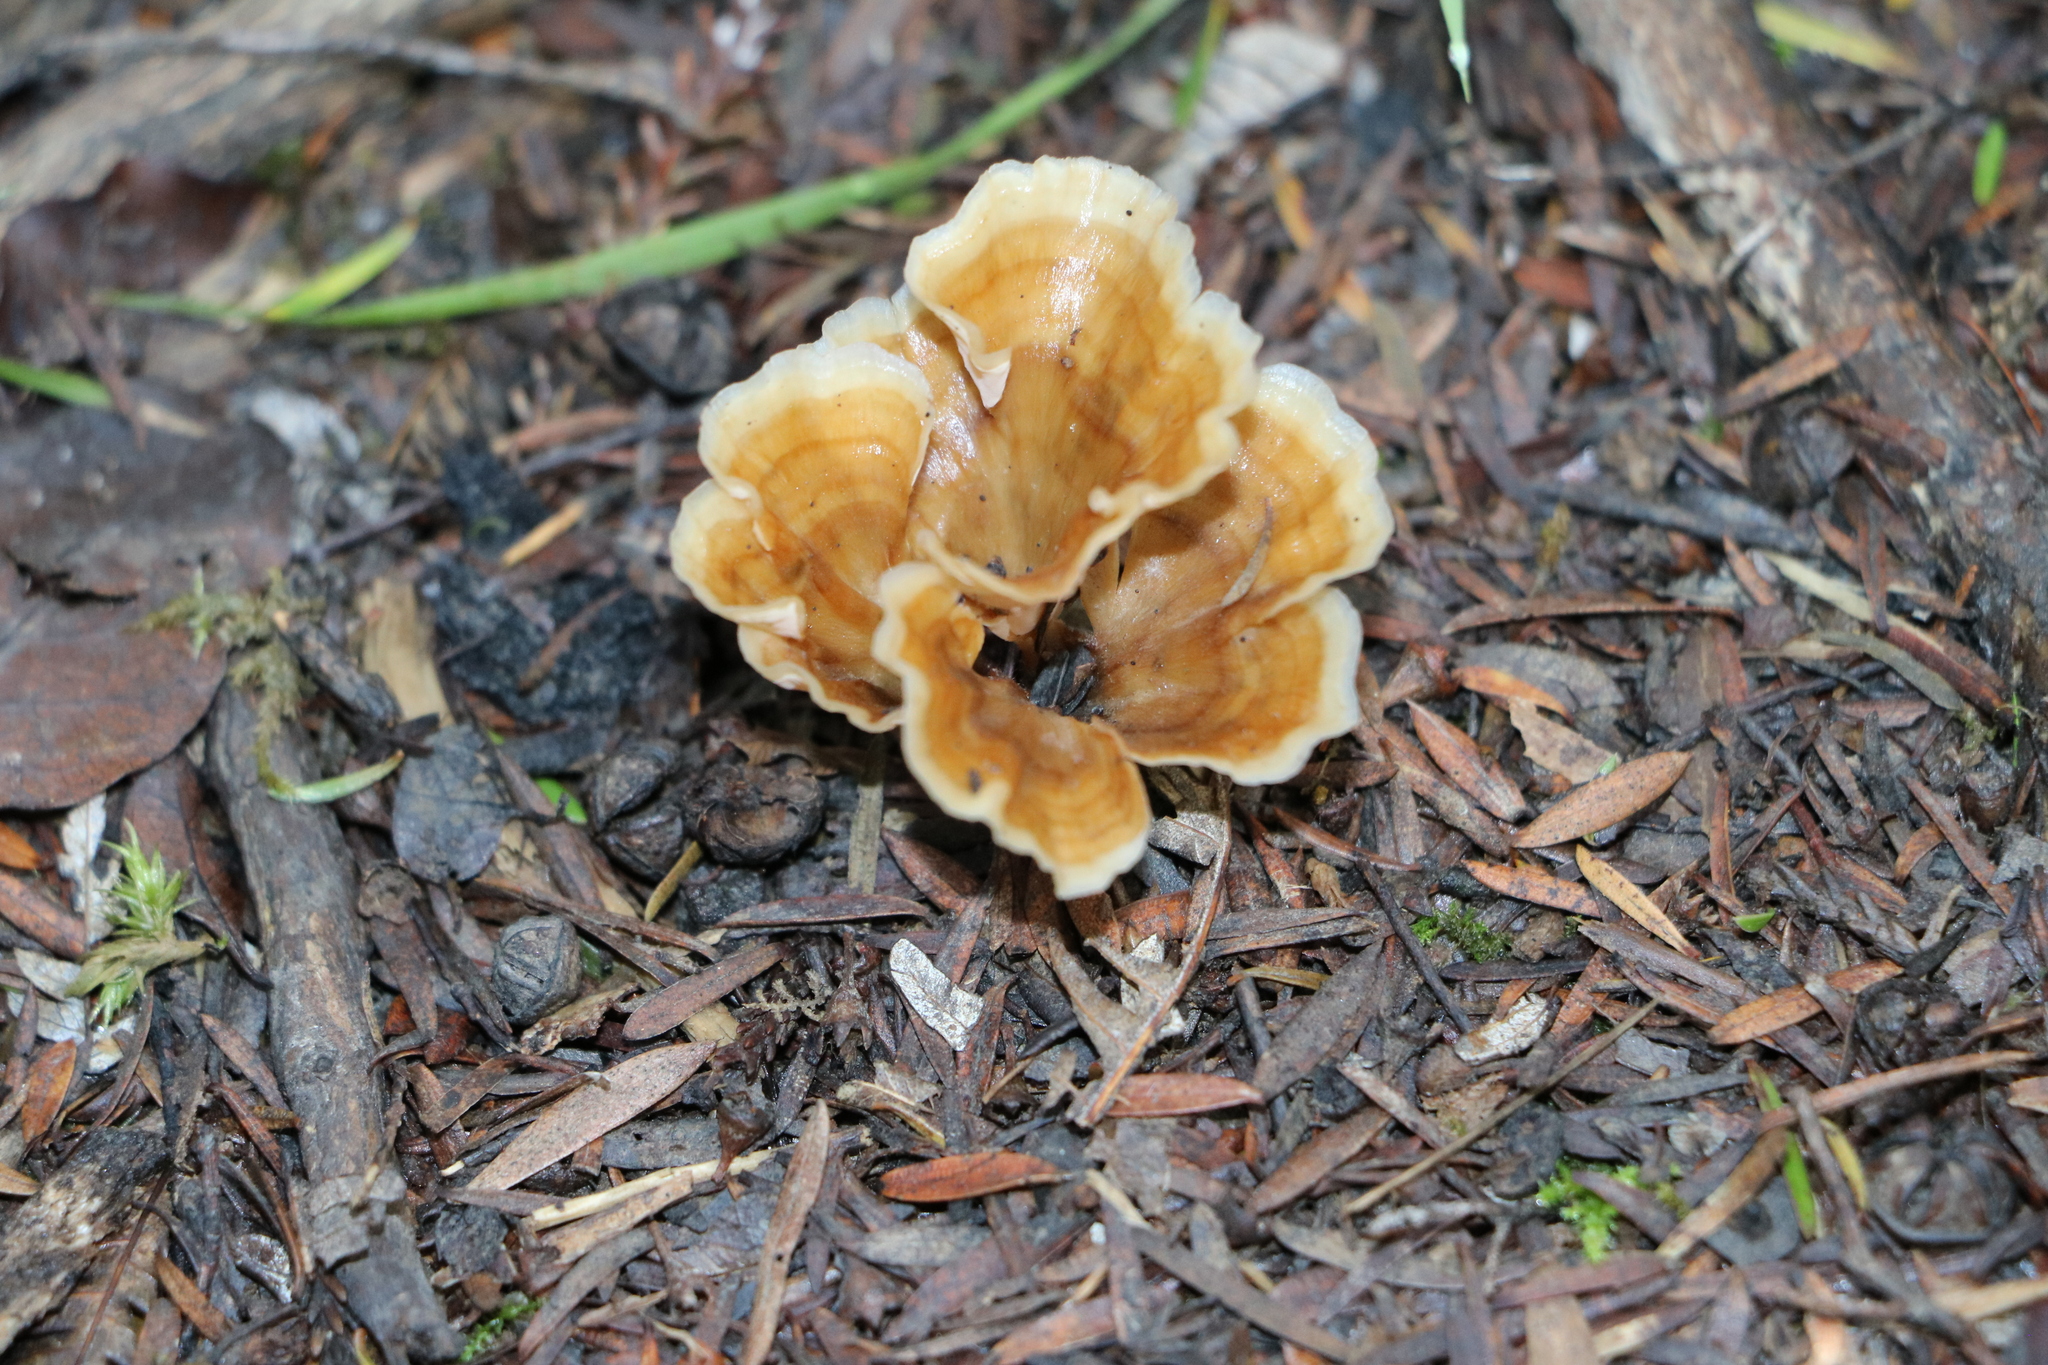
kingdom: Fungi
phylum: Basidiomycota
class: Agaricomycetes
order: Polyporales
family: Podoscyphaceae
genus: Podoscypha
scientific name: Podoscypha petalodes
